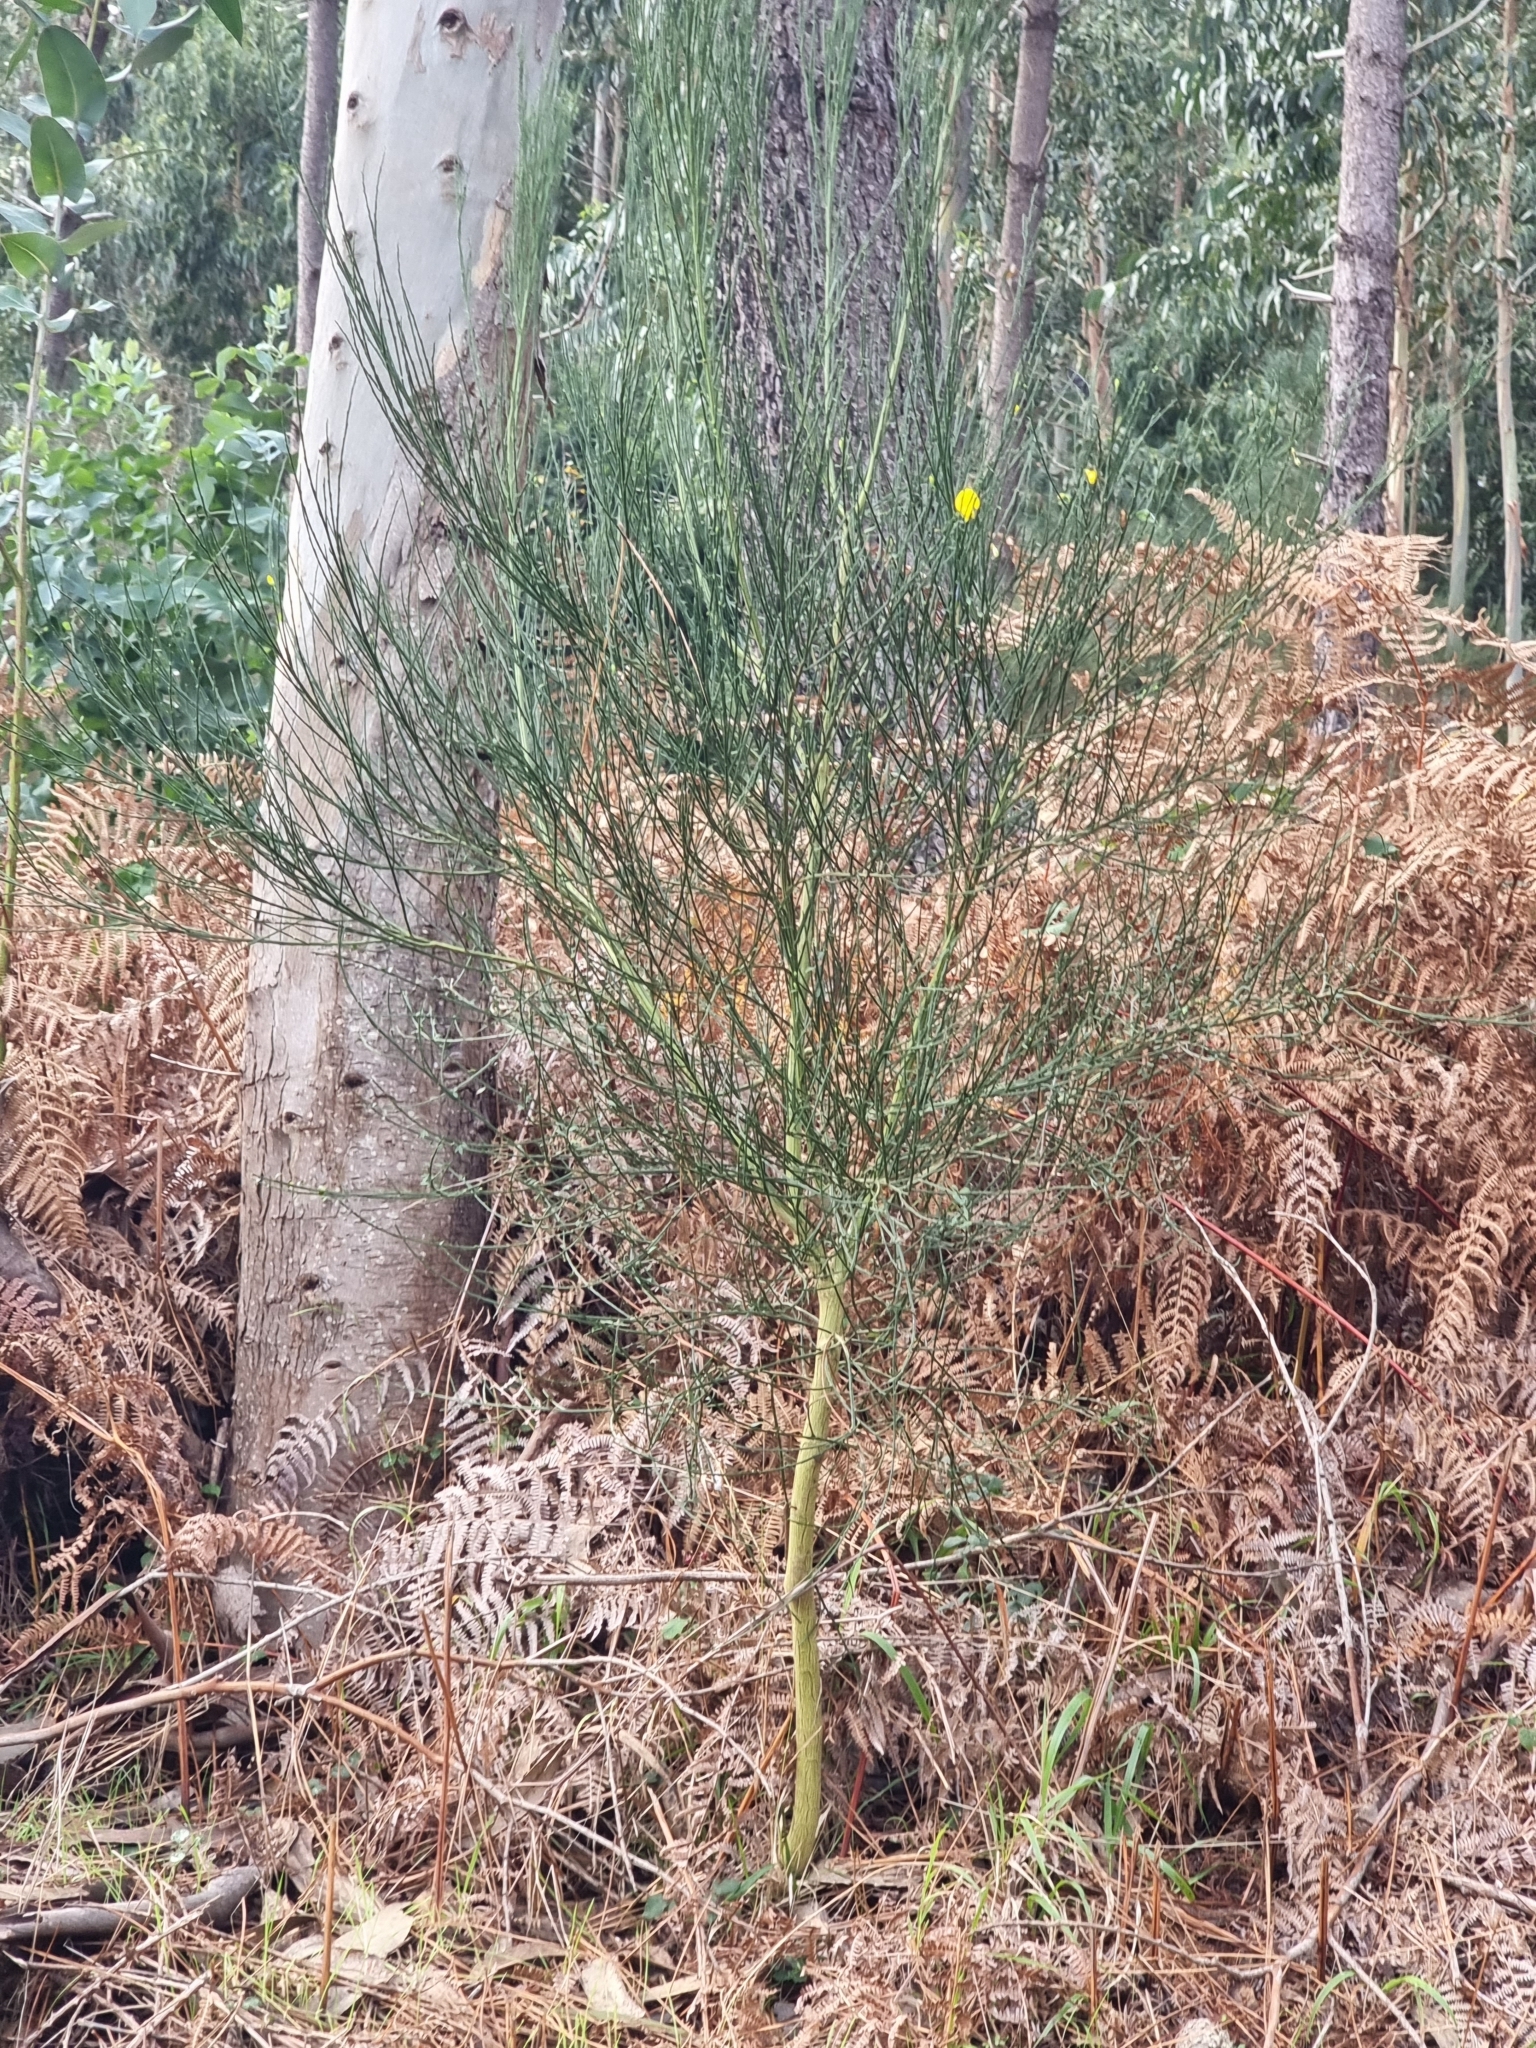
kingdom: Plantae
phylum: Tracheophyta
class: Magnoliopsida
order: Fabales
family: Fabaceae
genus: Cytisus
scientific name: Cytisus scoparius
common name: Scotch broom
